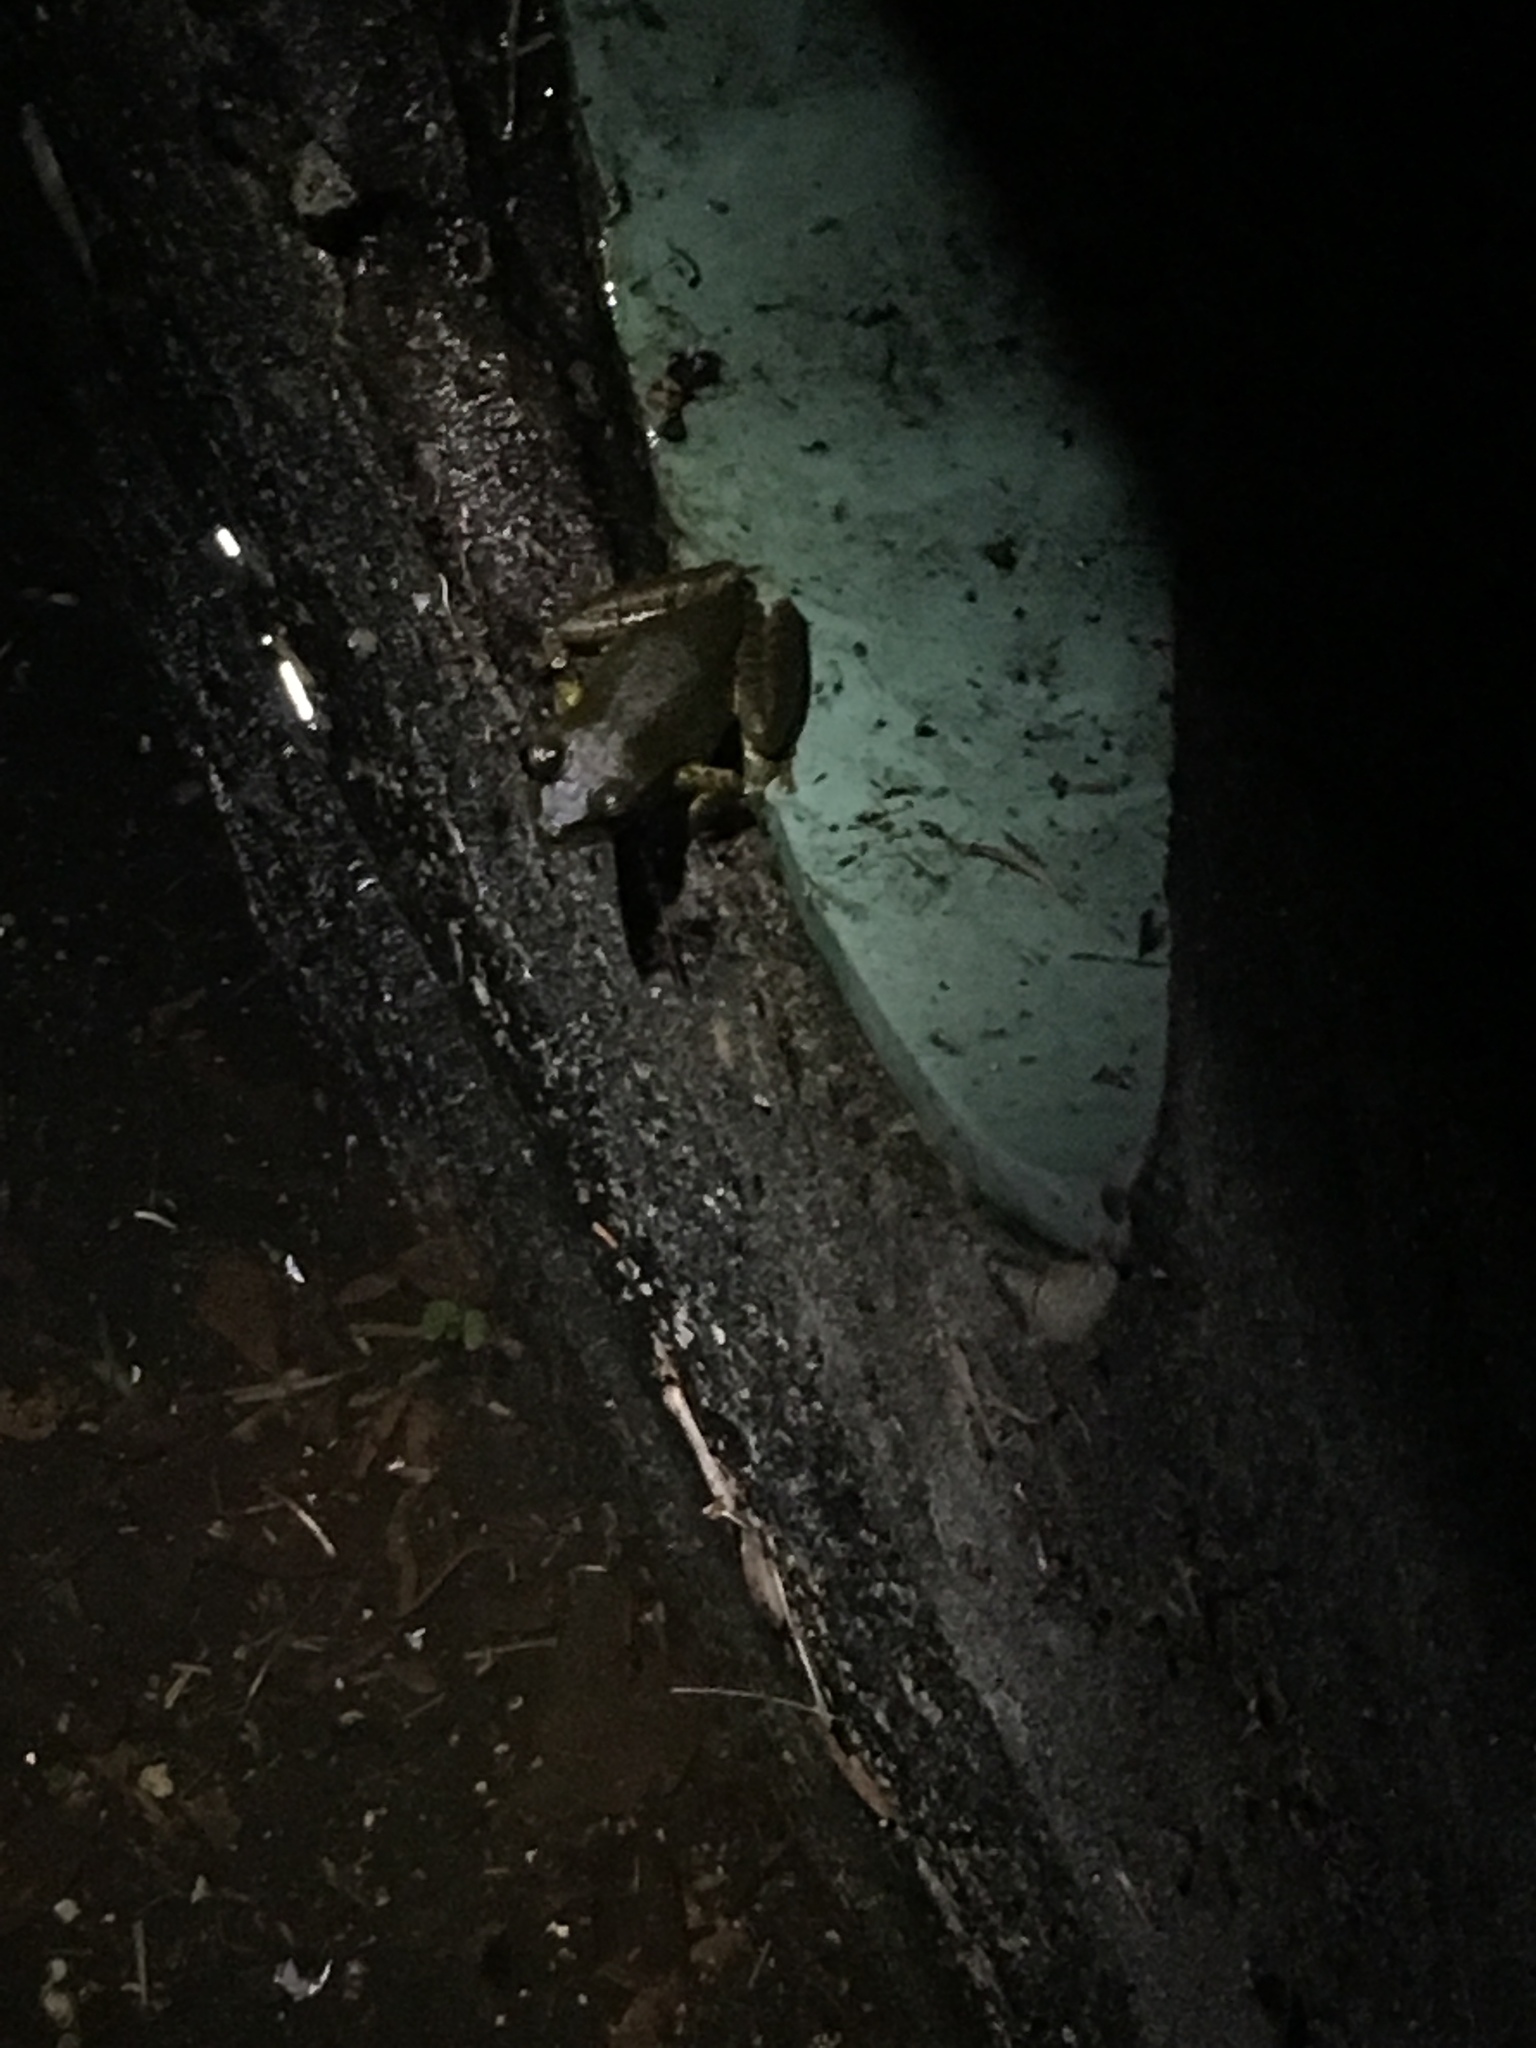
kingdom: Animalia
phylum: Chordata
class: Amphibia
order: Anura
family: Hylidae
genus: Osteopilus
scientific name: Osteopilus septentrionalis
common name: Cuban treefrog
